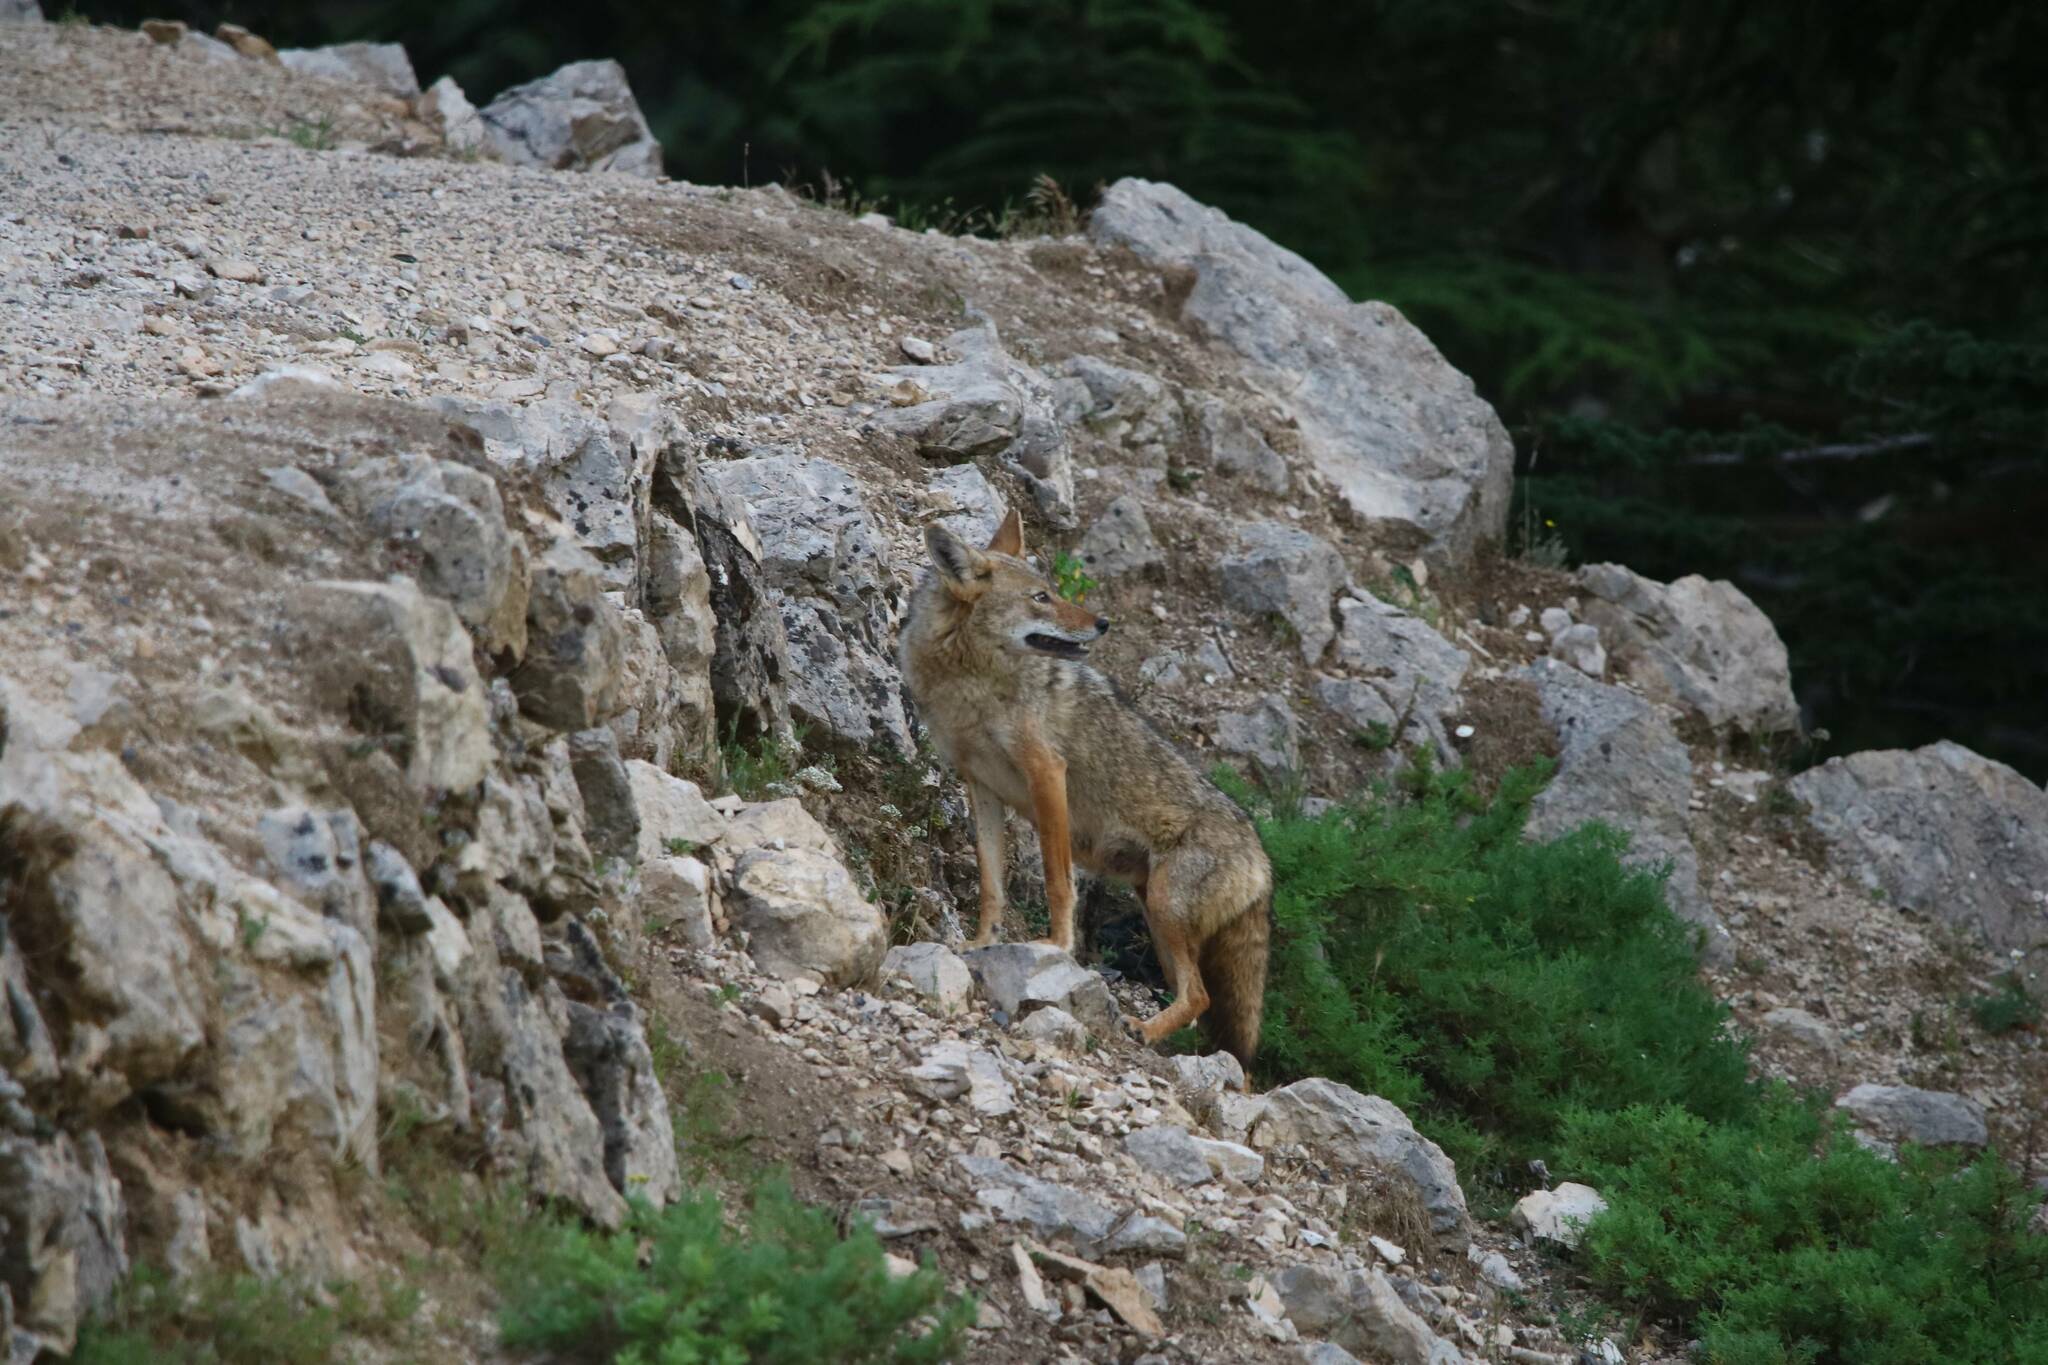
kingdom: Animalia
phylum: Chordata
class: Mammalia
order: Carnivora
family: Canidae
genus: Canis
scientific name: Canis lupaster
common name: African golden wolf
